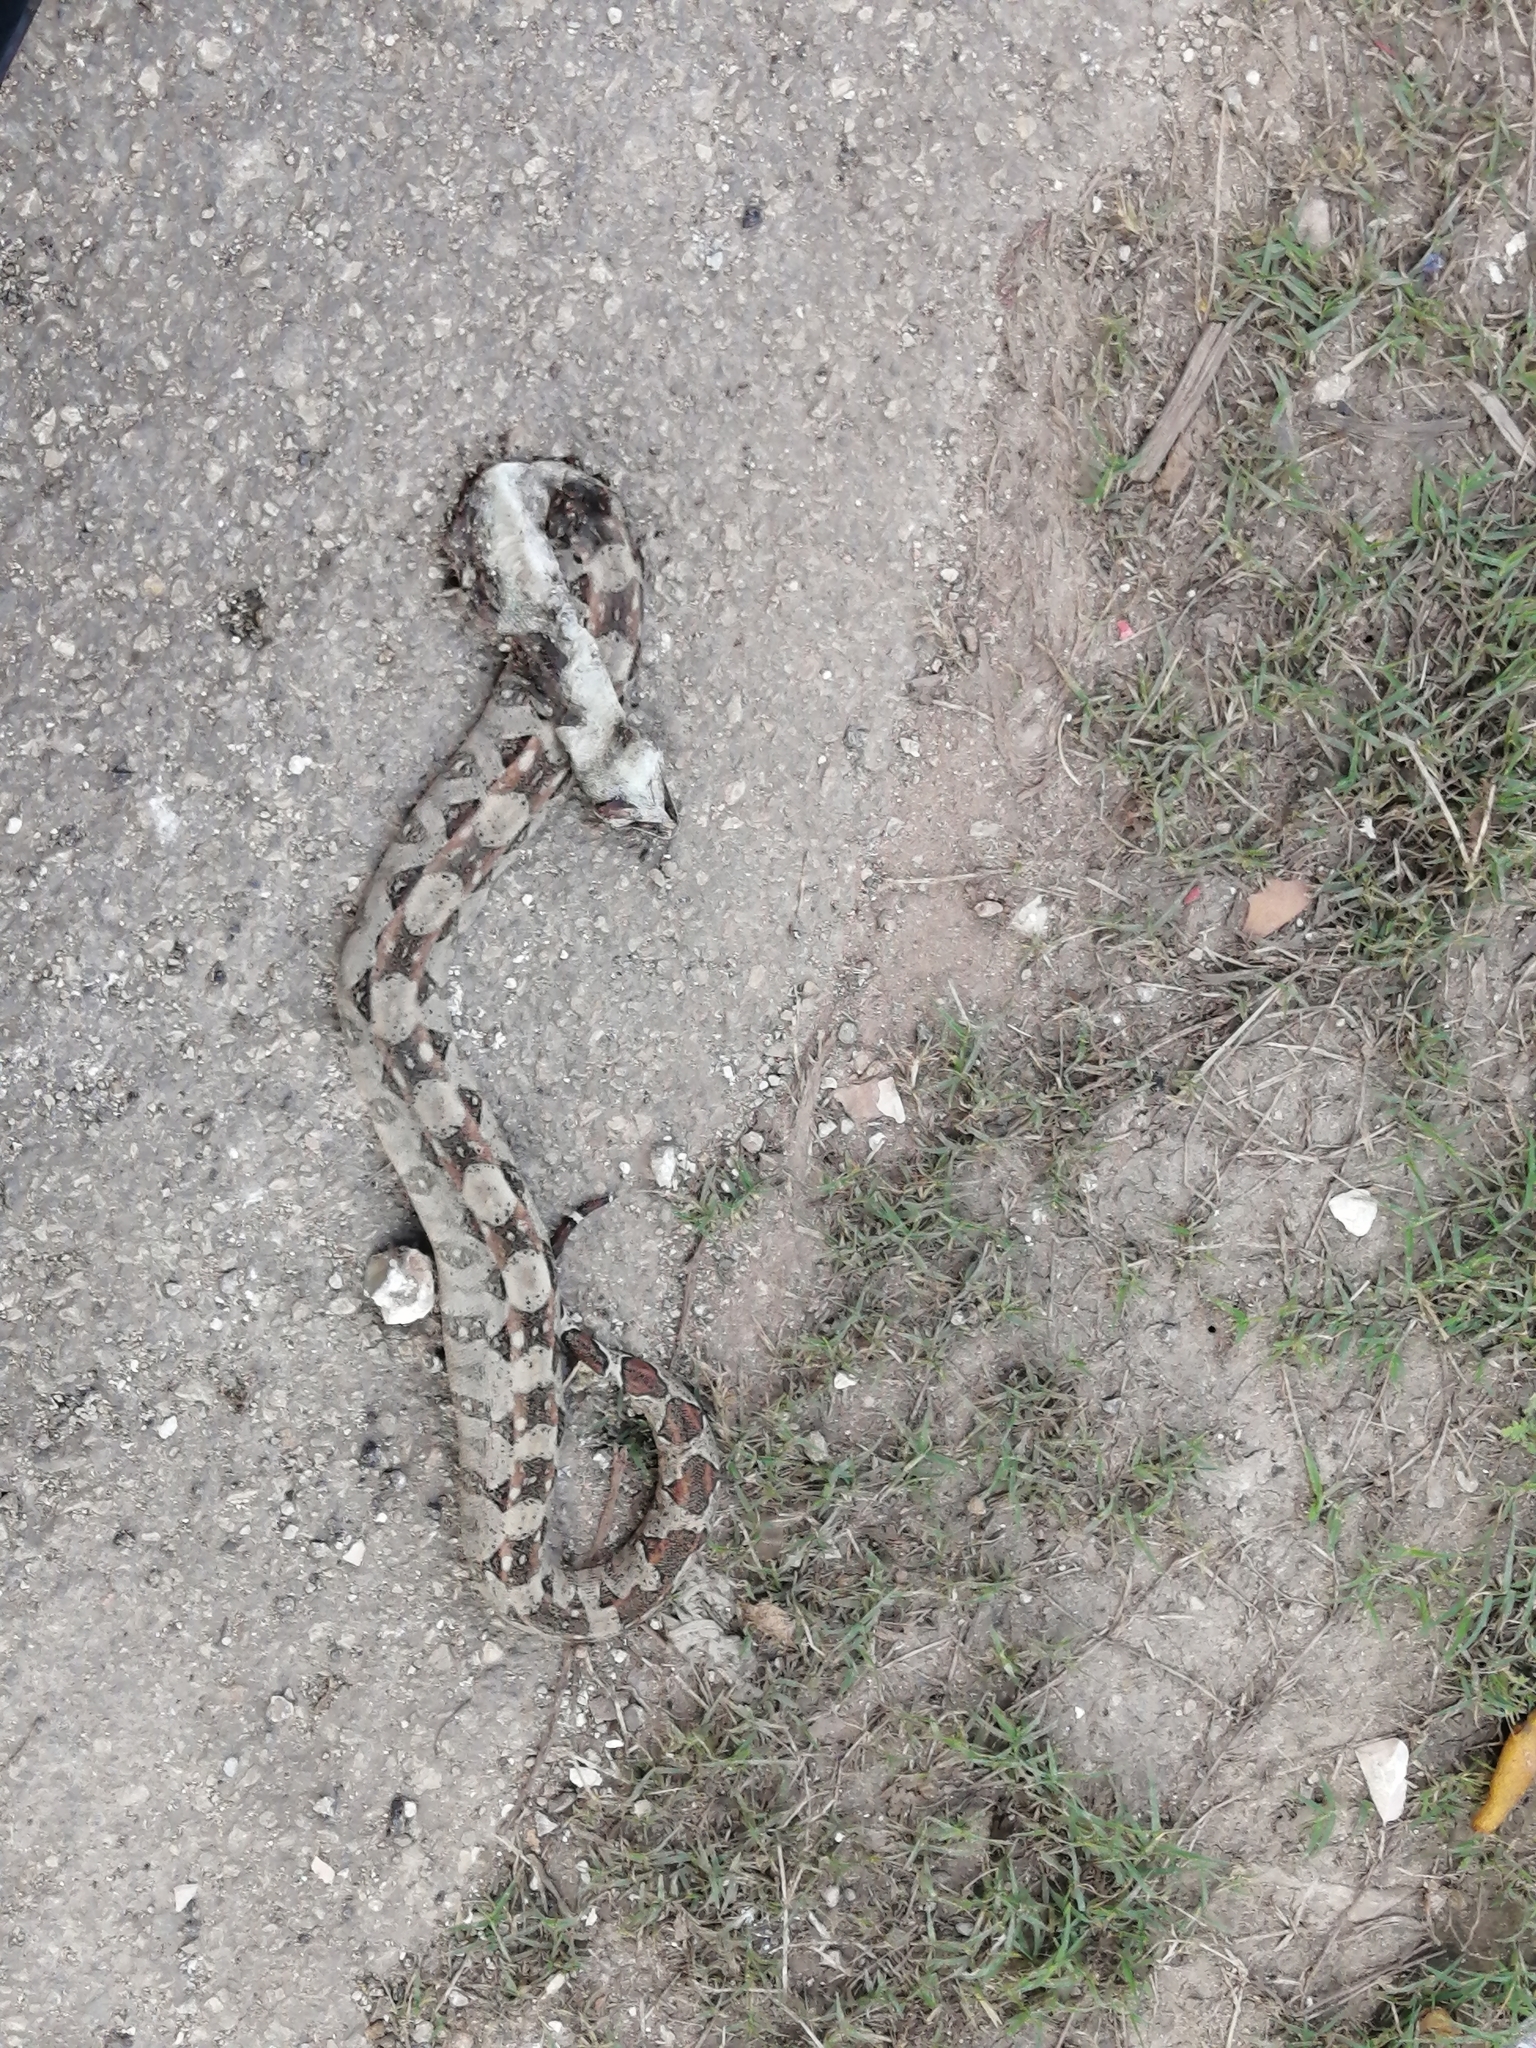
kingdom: Animalia
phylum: Chordata
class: Squamata
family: Boidae
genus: Boa
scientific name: Boa imperator
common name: Central american boa
